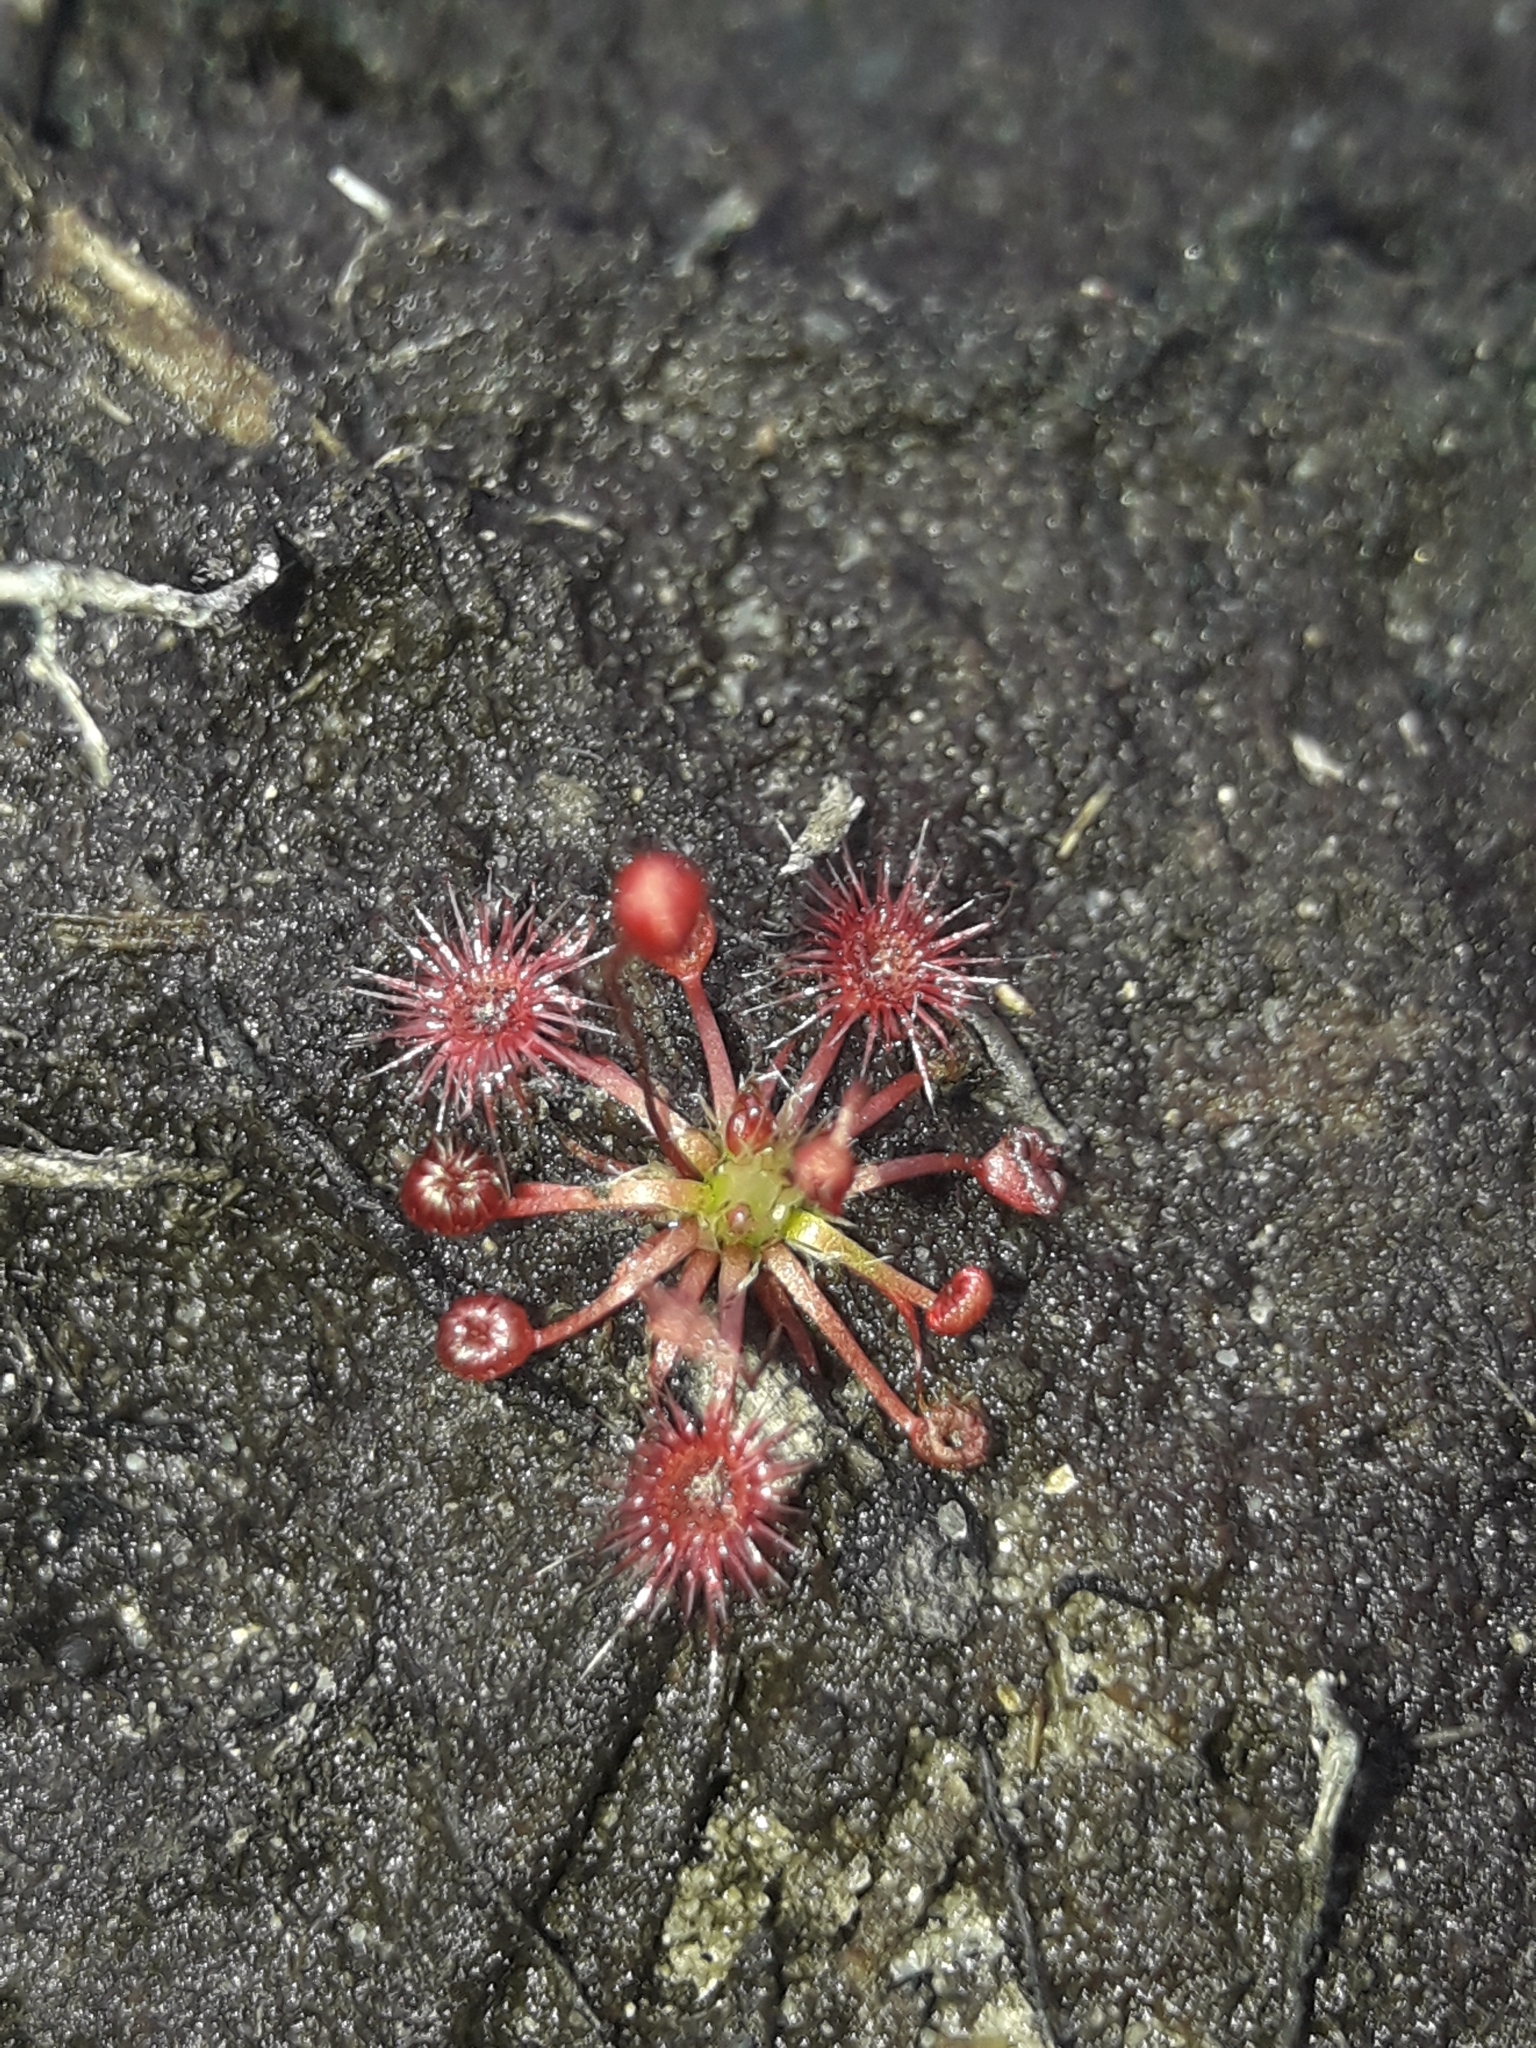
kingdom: Plantae
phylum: Tracheophyta
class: Magnoliopsida
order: Caryophyllales
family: Droseraceae
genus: Drosera
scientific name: Drosera pygmaea
